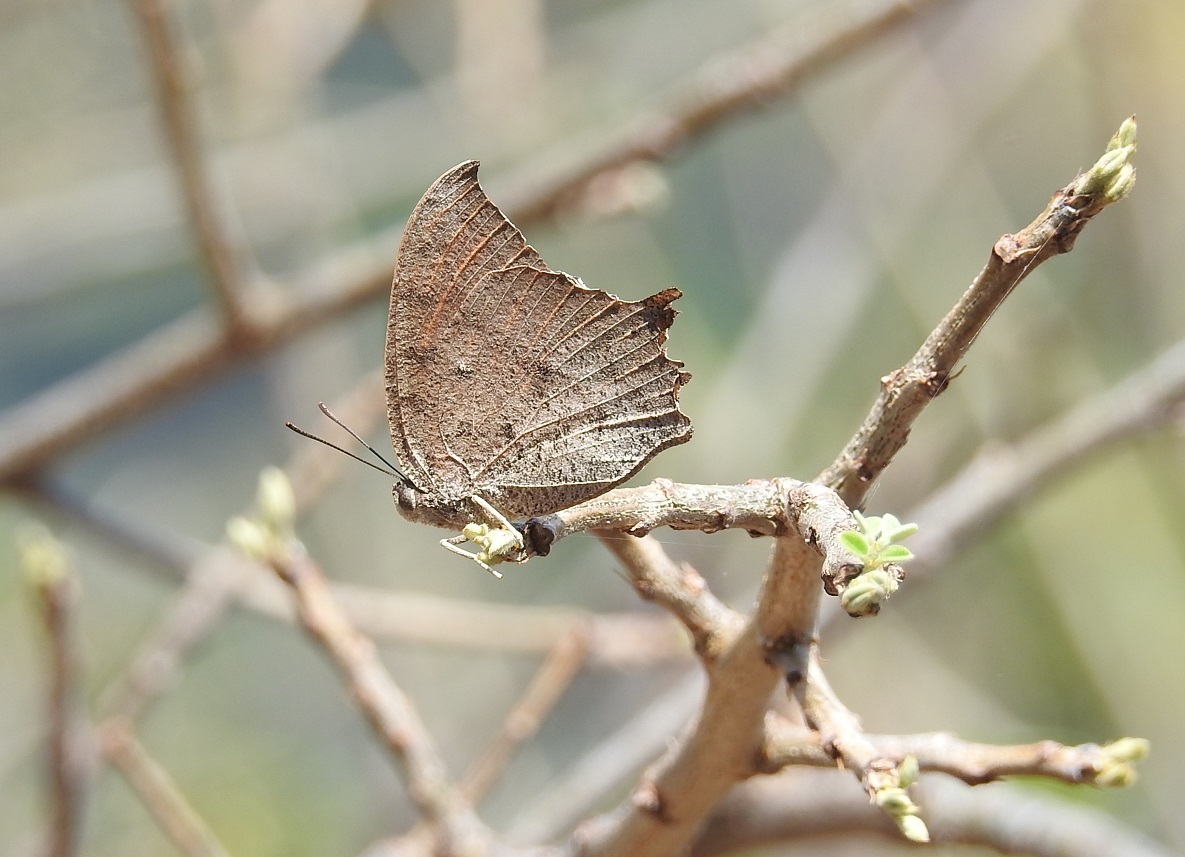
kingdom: Animalia
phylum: Arthropoda
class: Insecta
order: Lepidoptera
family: Nymphalidae
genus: Anaea
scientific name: Anaea aidea
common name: Tropical leafwing
